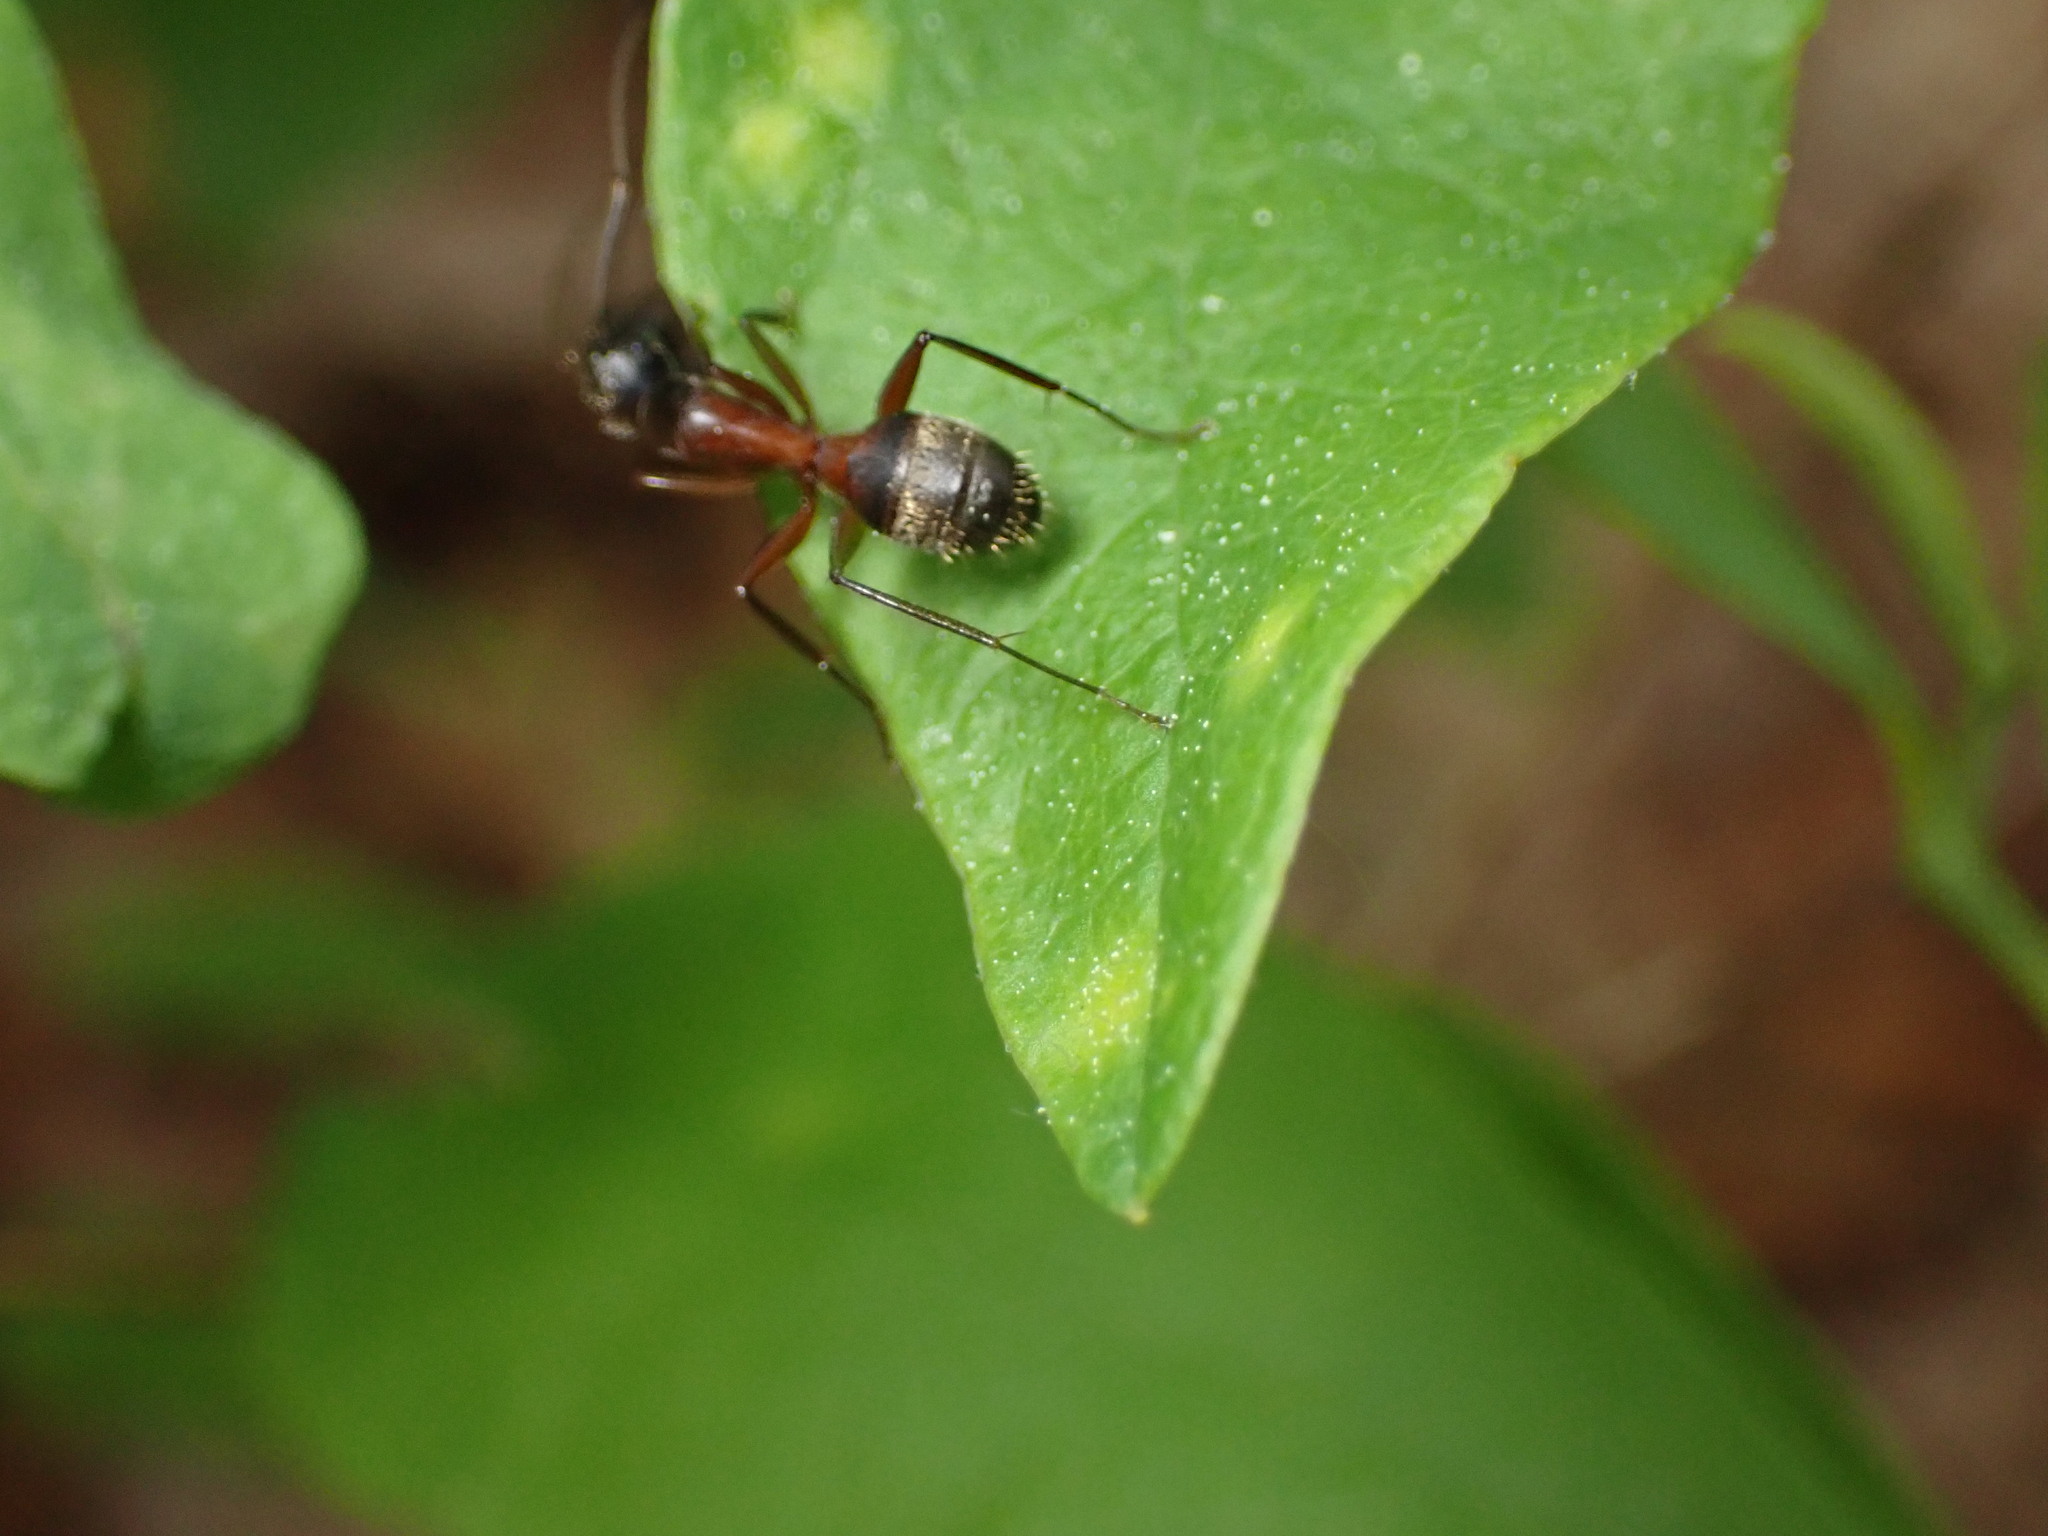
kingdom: Animalia
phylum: Arthropoda
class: Insecta
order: Hymenoptera
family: Formicidae
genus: Camponotus
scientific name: Camponotus chromaiodes
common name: Red carpenter ant
